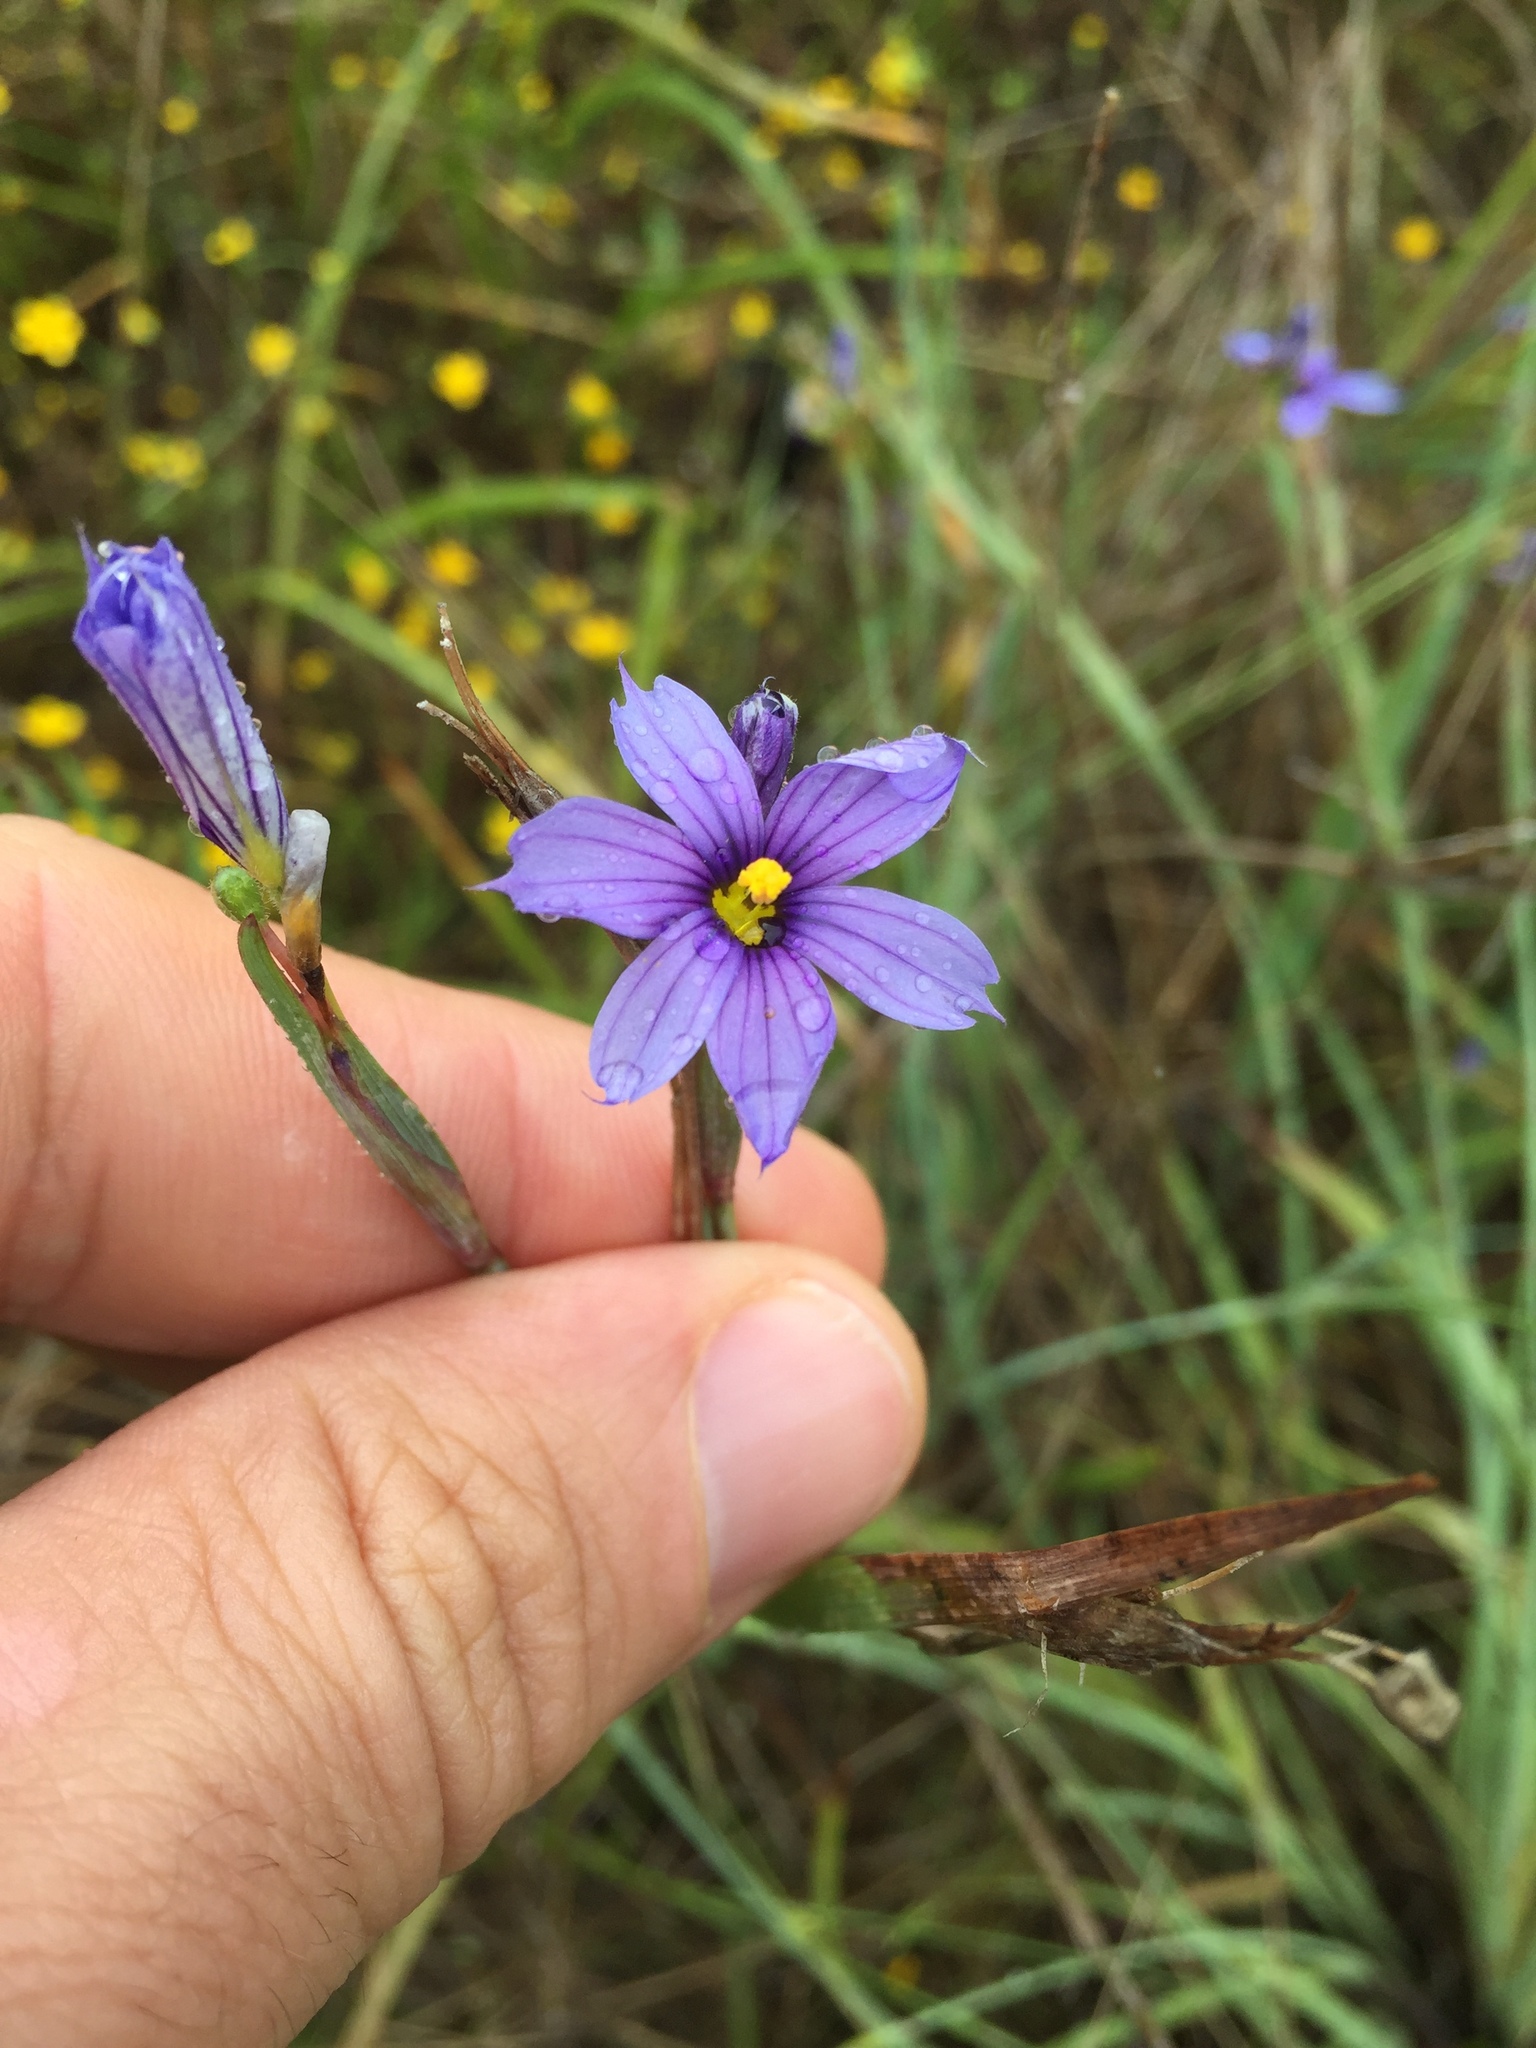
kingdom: Plantae
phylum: Tracheophyta
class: Liliopsida
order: Asparagales
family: Iridaceae
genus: Sisyrinchium
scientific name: Sisyrinchium bellum
